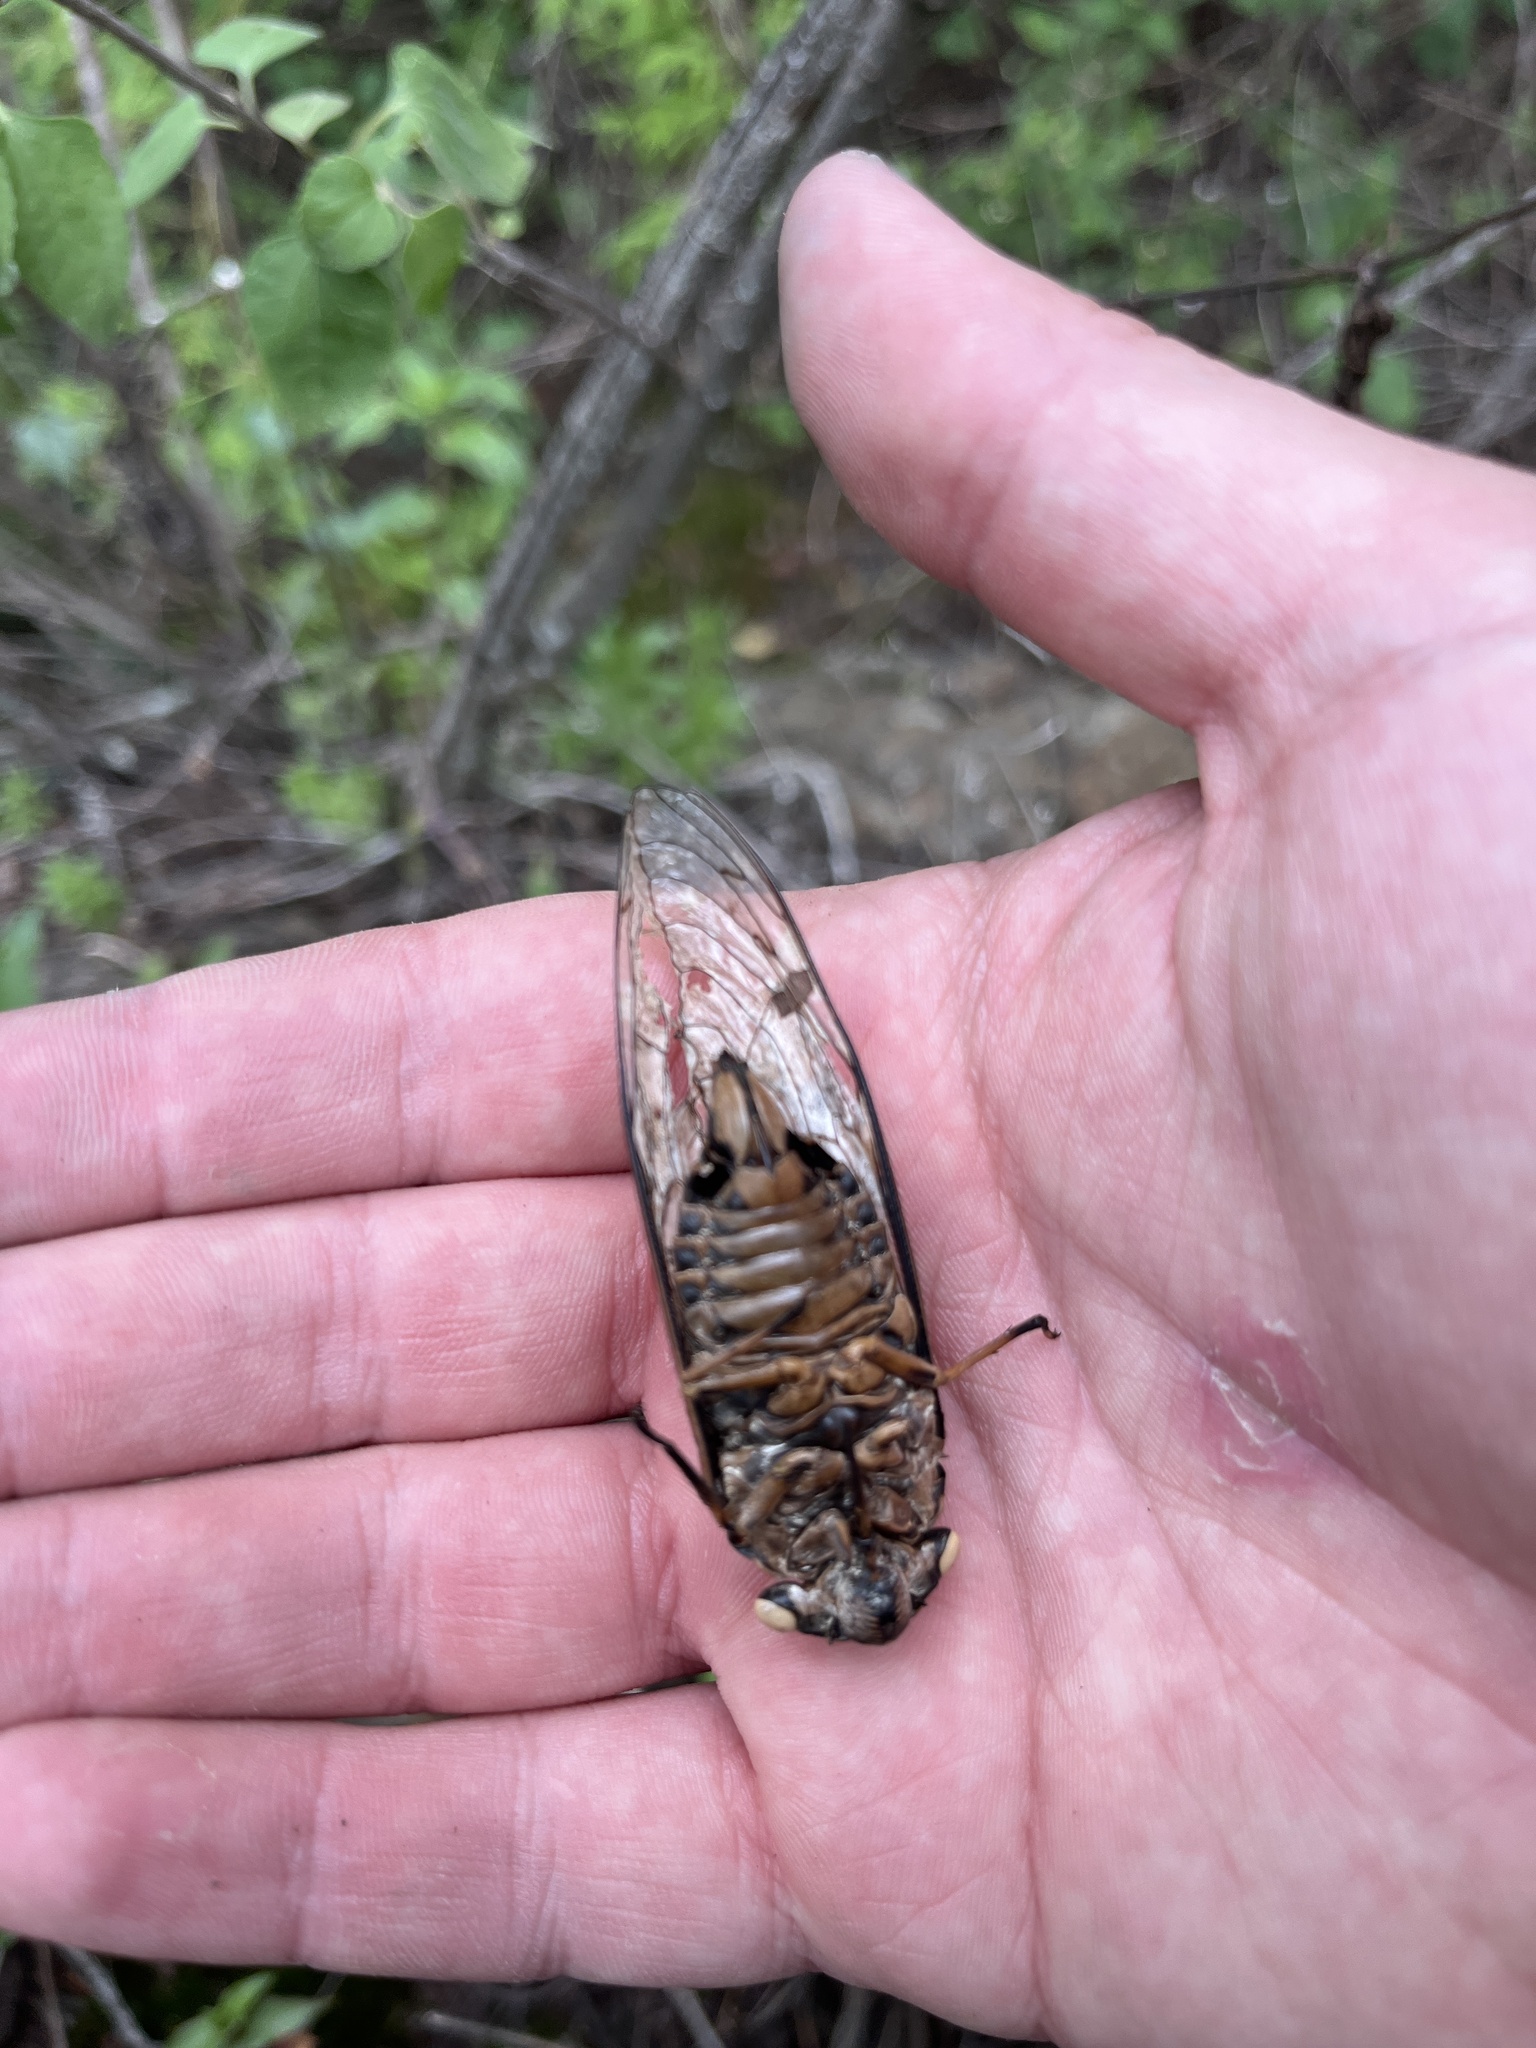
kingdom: Animalia
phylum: Arthropoda
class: Insecta
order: Hemiptera
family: Cicadidae
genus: Quesada
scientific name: Quesada gigas
